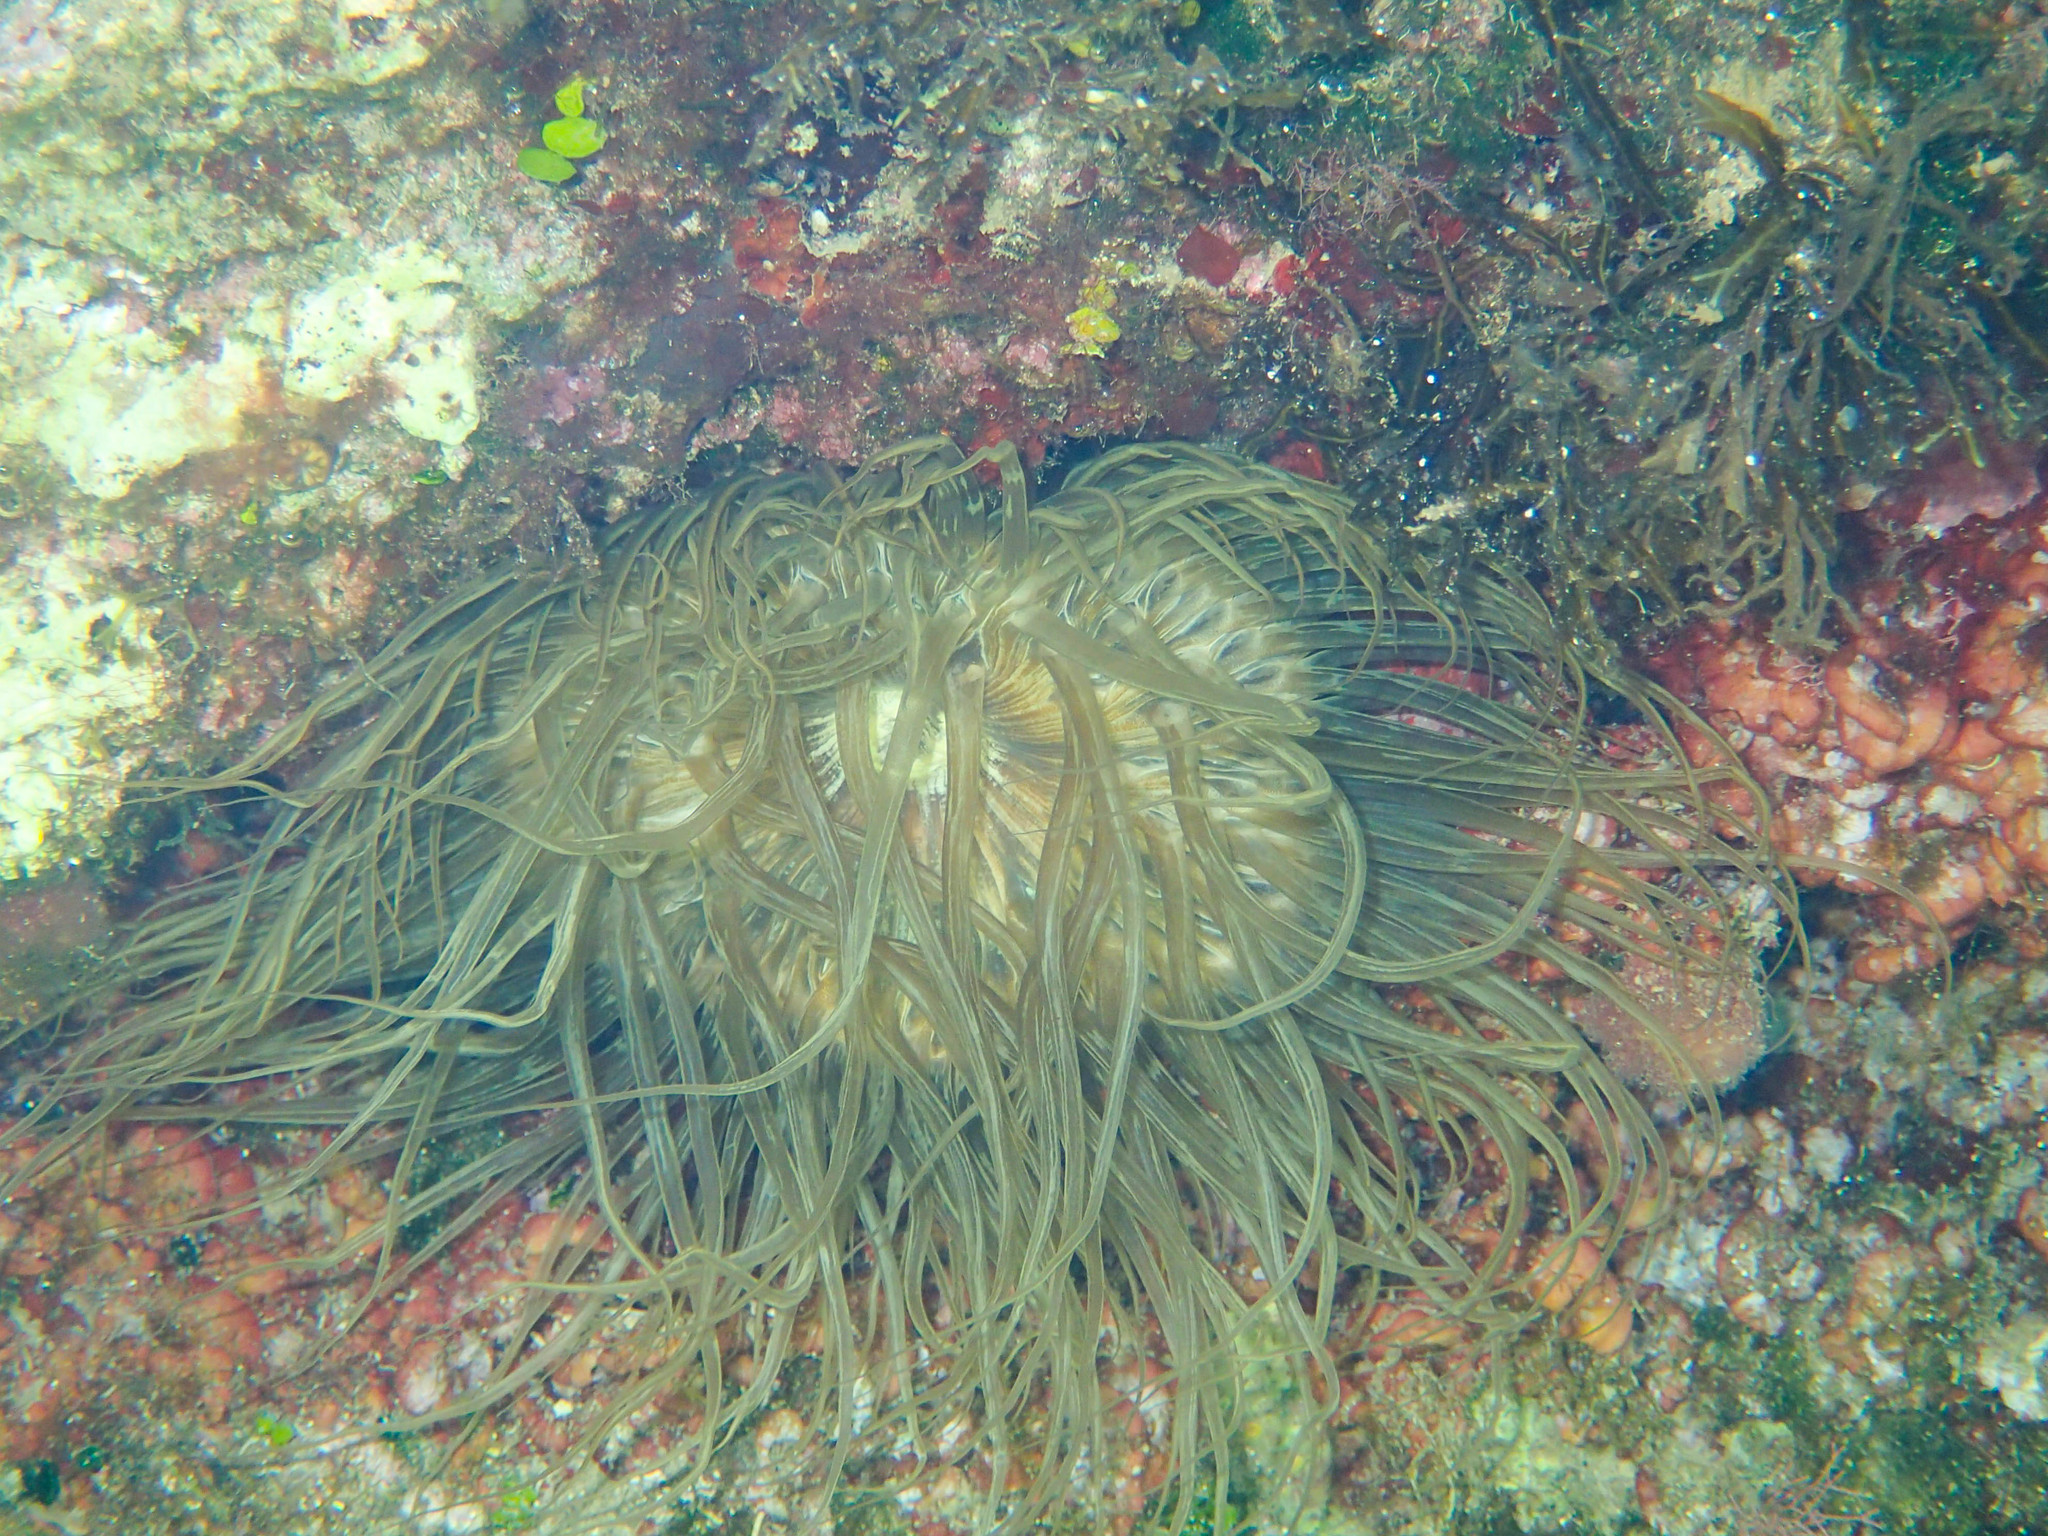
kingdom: Animalia
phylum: Cnidaria
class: Anthozoa
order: Actiniaria
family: Aiptasiidae
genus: Aiptasia
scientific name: Aiptasia mutabilis
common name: Trumpet anemone
